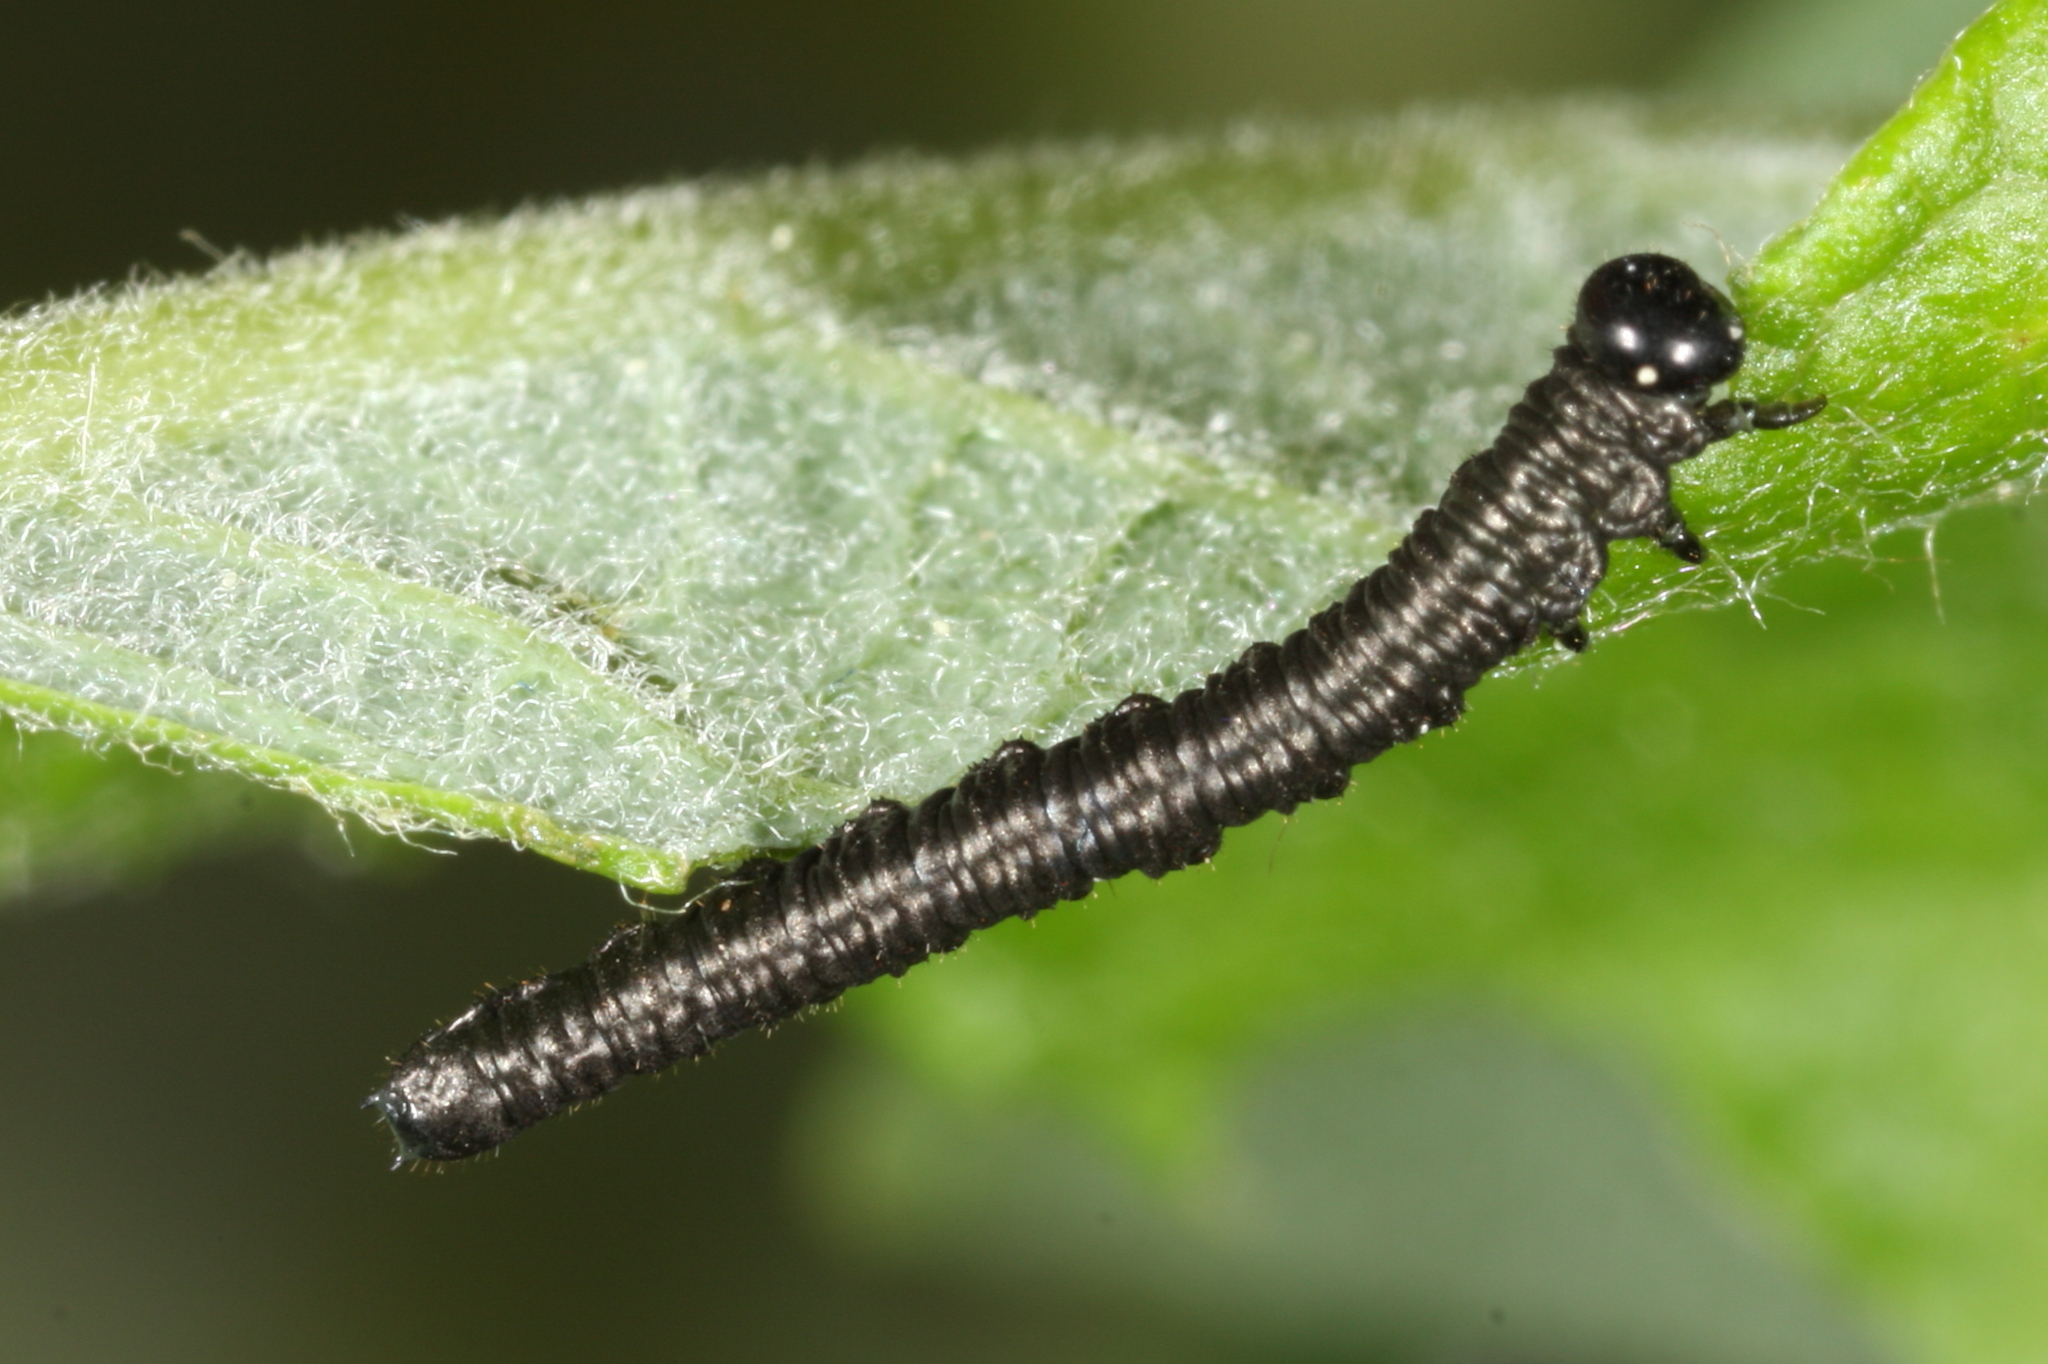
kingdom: Animalia
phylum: Arthropoda
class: Insecta
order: Hymenoptera
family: Tenthredinidae
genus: Amauronematus
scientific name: Amauronematus puniceus
